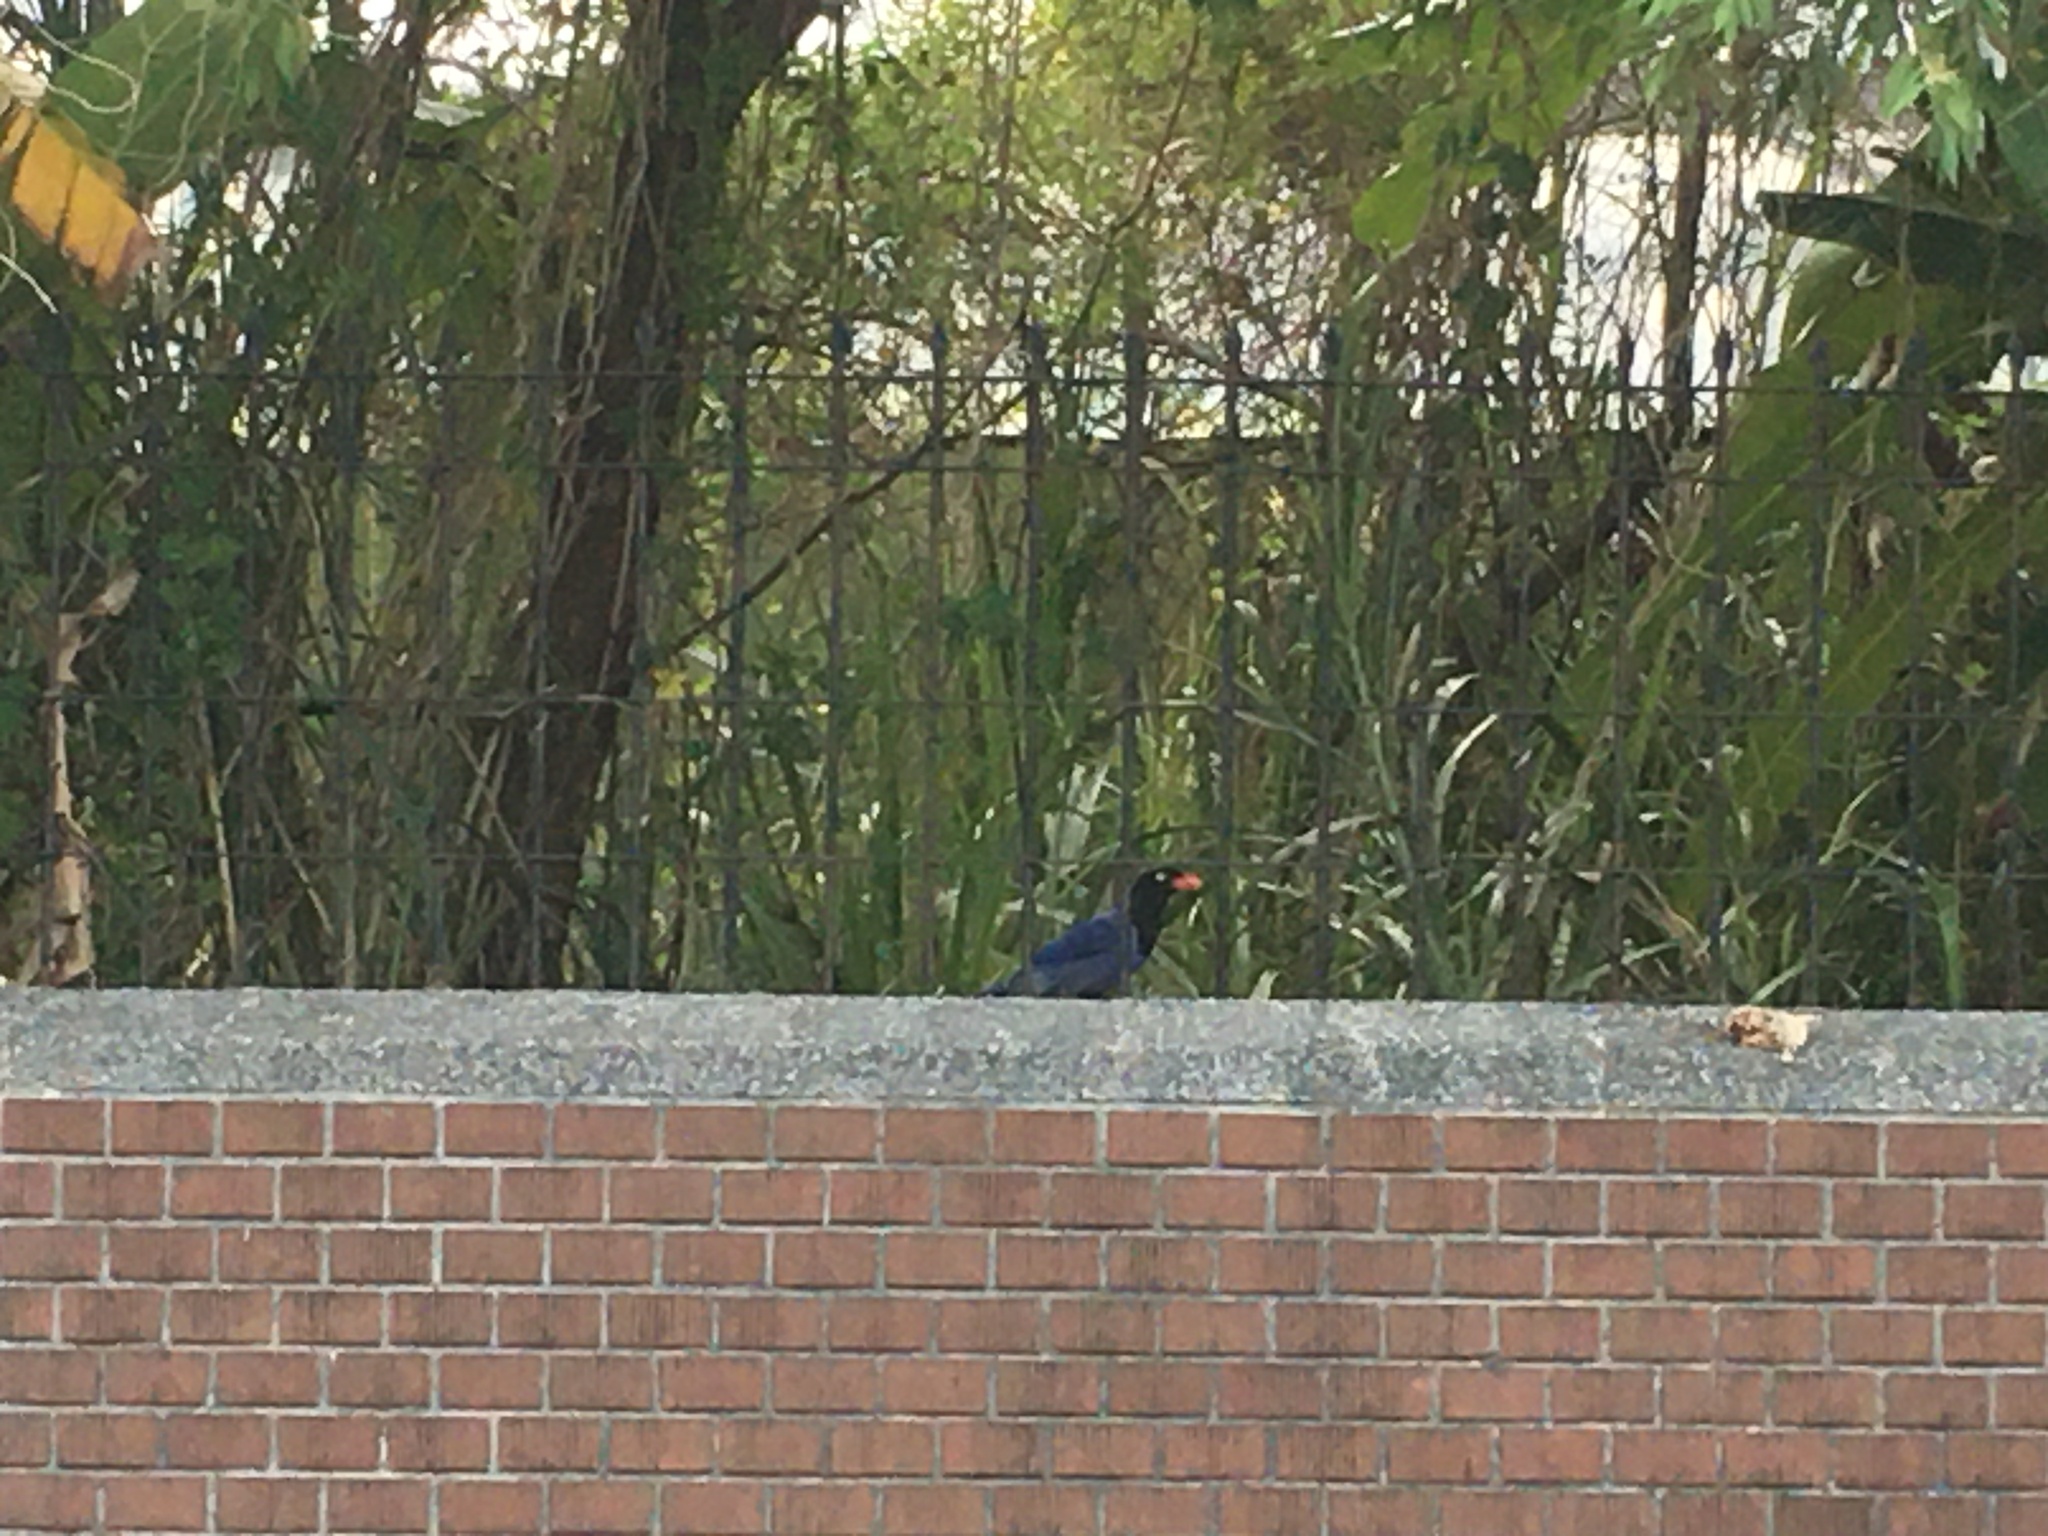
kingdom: Animalia
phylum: Chordata
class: Aves
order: Passeriformes
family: Corvidae
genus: Urocissa
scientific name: Urocissa caerulea
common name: Taiwan blue magpie
